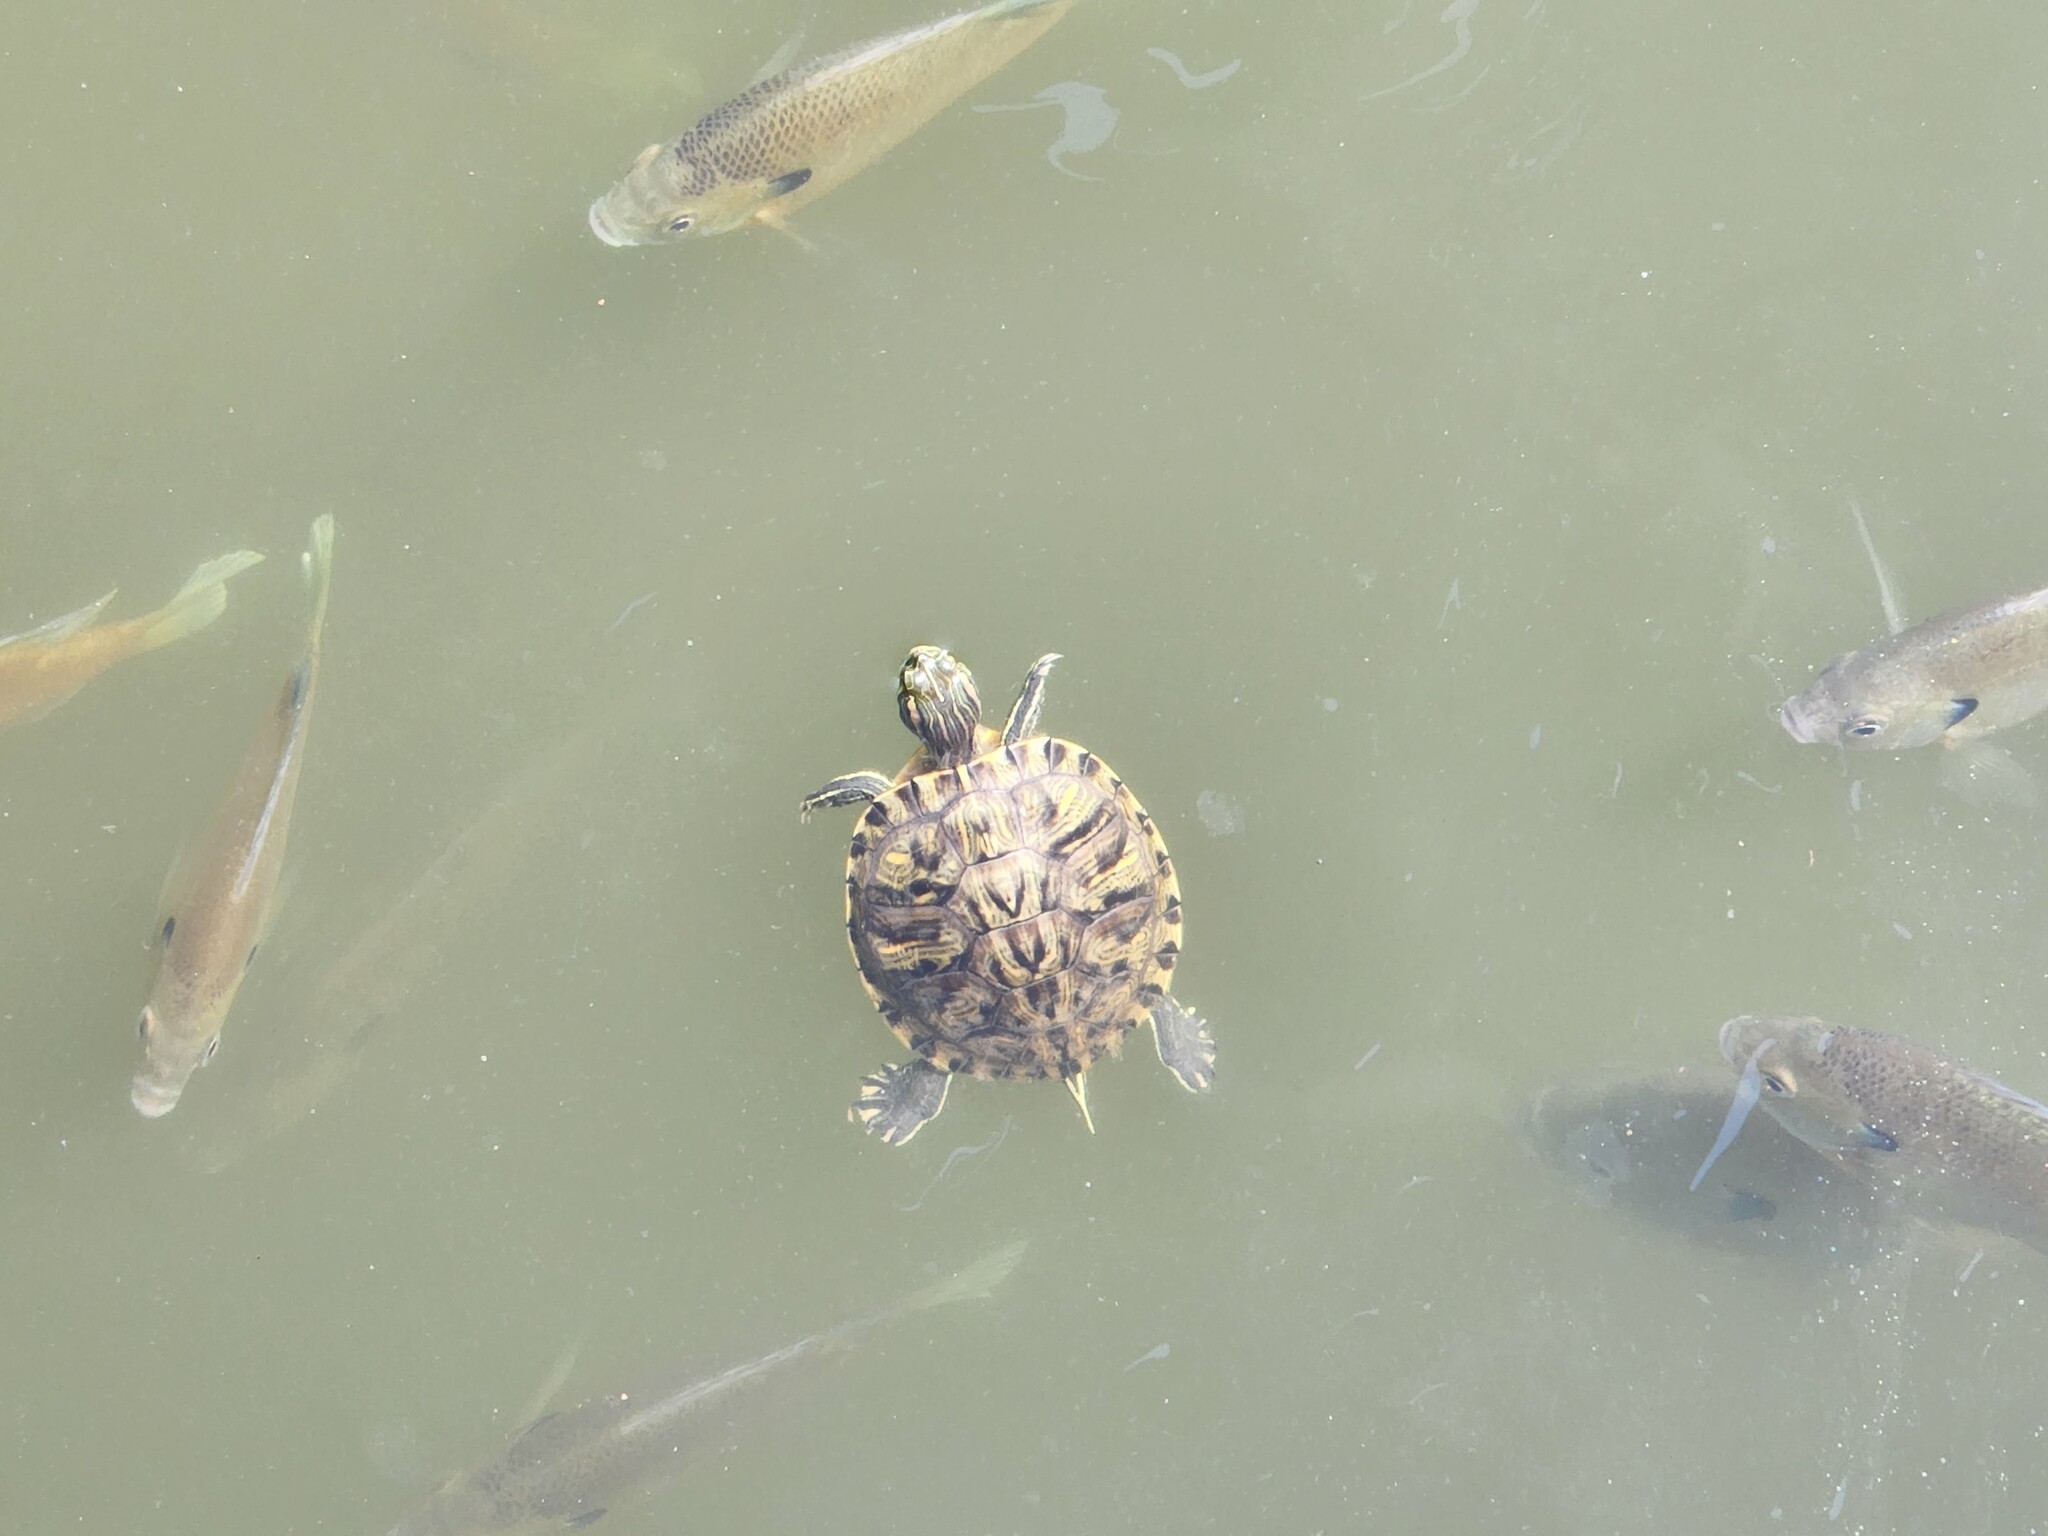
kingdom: Animalia
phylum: Chordata
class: Testudines
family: Emydidae
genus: Trachemys
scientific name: Trachemys scripta
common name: Slider
